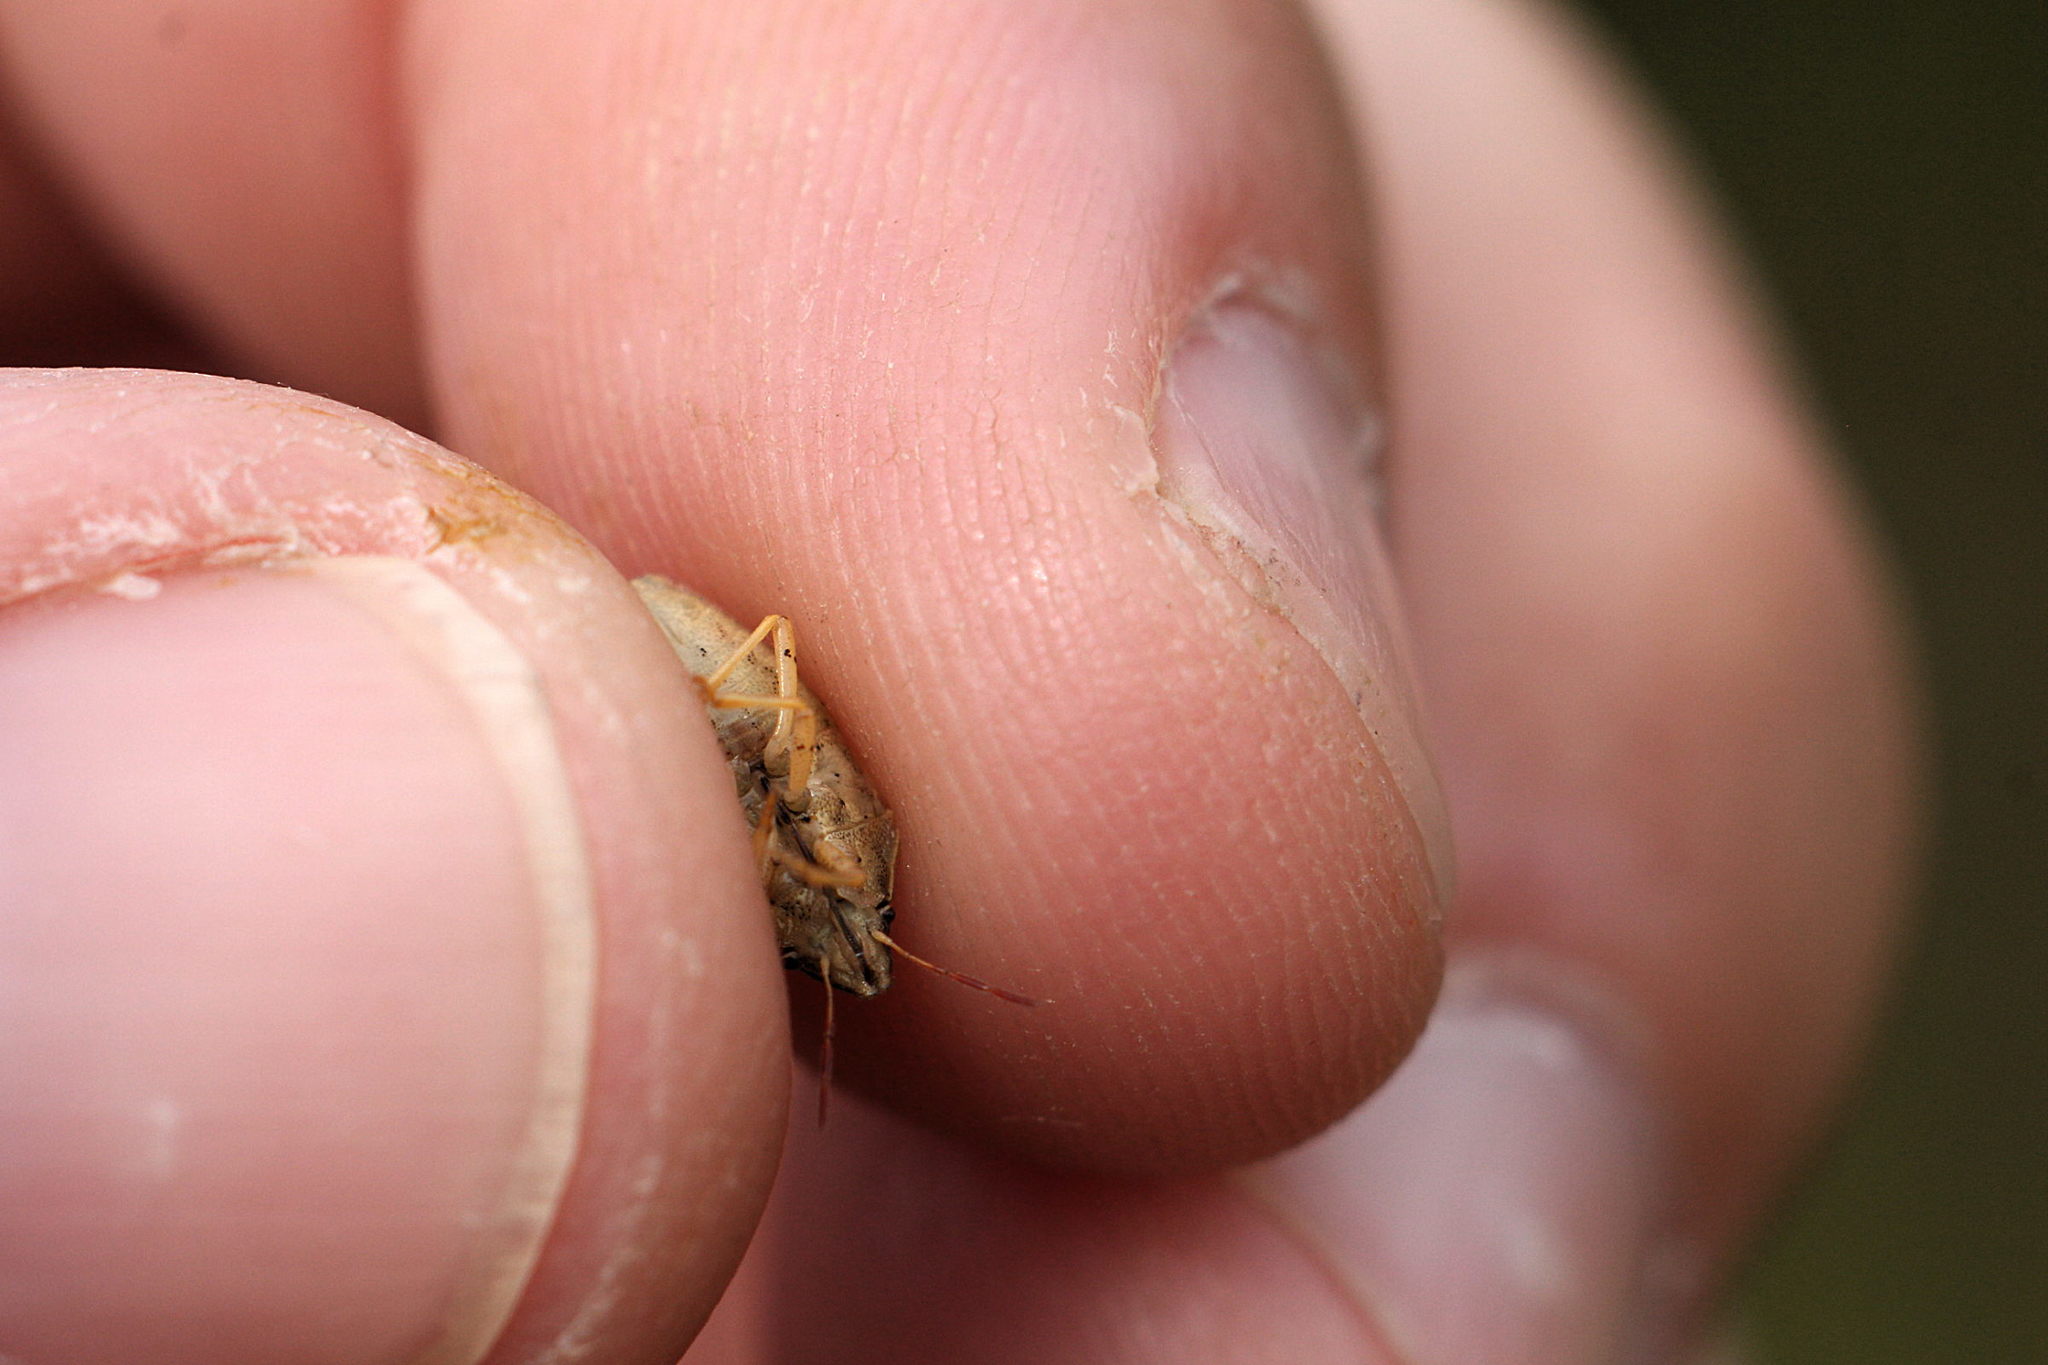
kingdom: Animalia
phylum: Arthropoda
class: Insecta
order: Hemiptera
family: Pentatomidae
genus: Aelia
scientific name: Aelia acuminata
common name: Bishop's mitre
